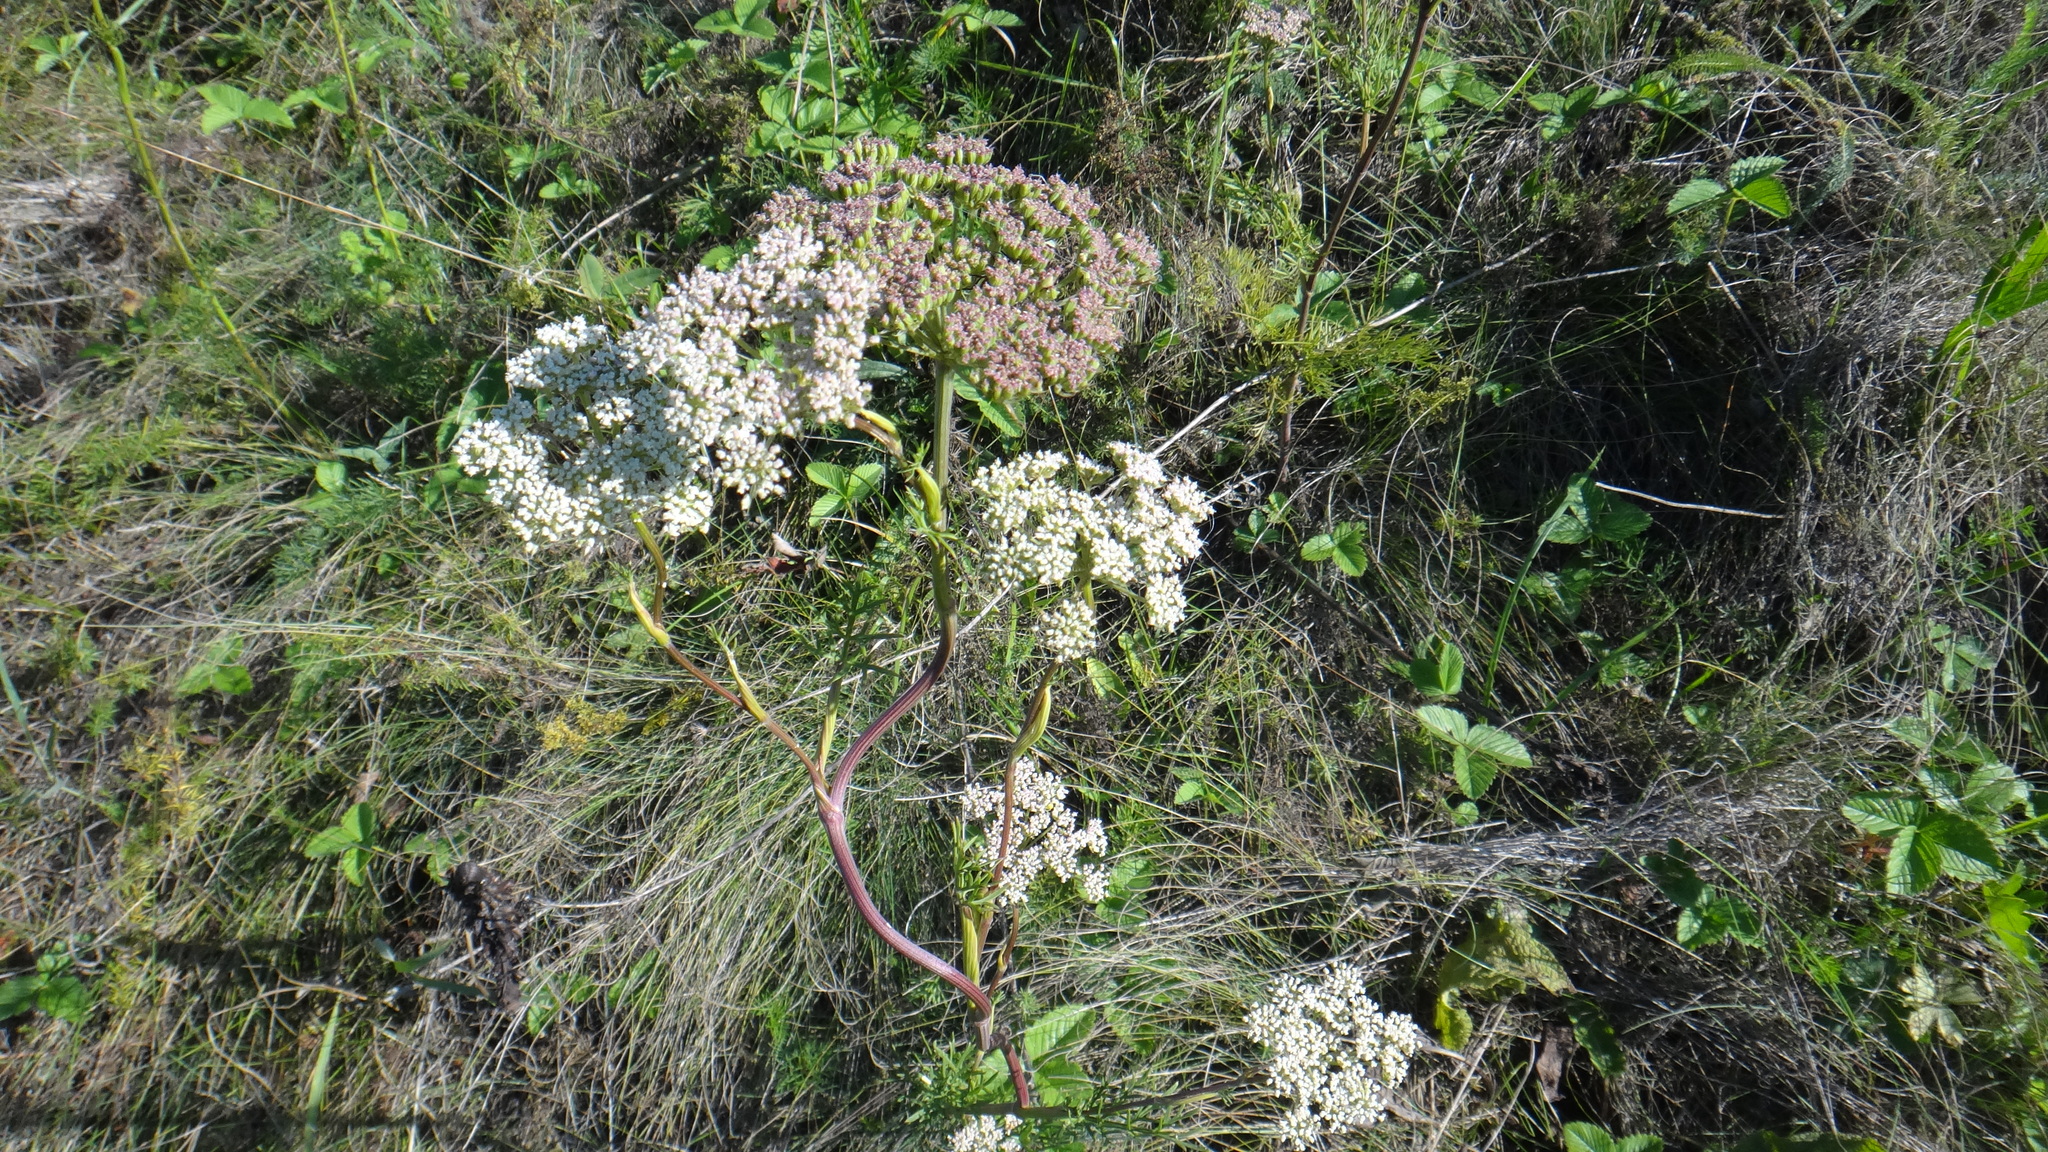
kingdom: Plantae
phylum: Tracheophyta
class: Magnoliopsida
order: Apiales
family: Apiaceae
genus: Seseli
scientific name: Seseli annuum
